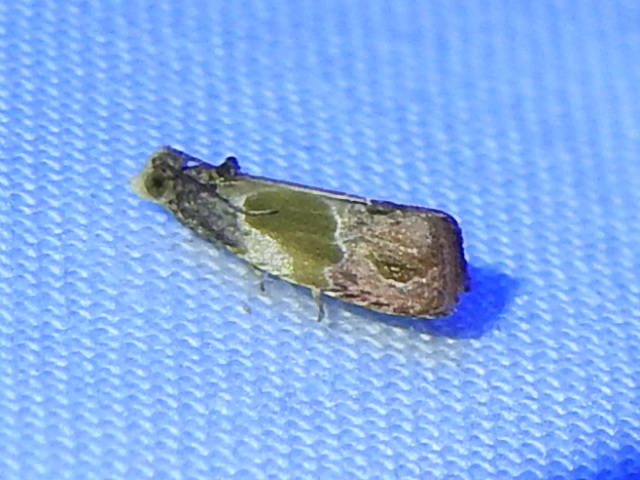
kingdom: Animalia
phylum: Arthropoda
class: Insecta
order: Lepidoptera
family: Tortricidae
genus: Eumarozia
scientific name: Eumarozia malachitana
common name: Sculptured moth
